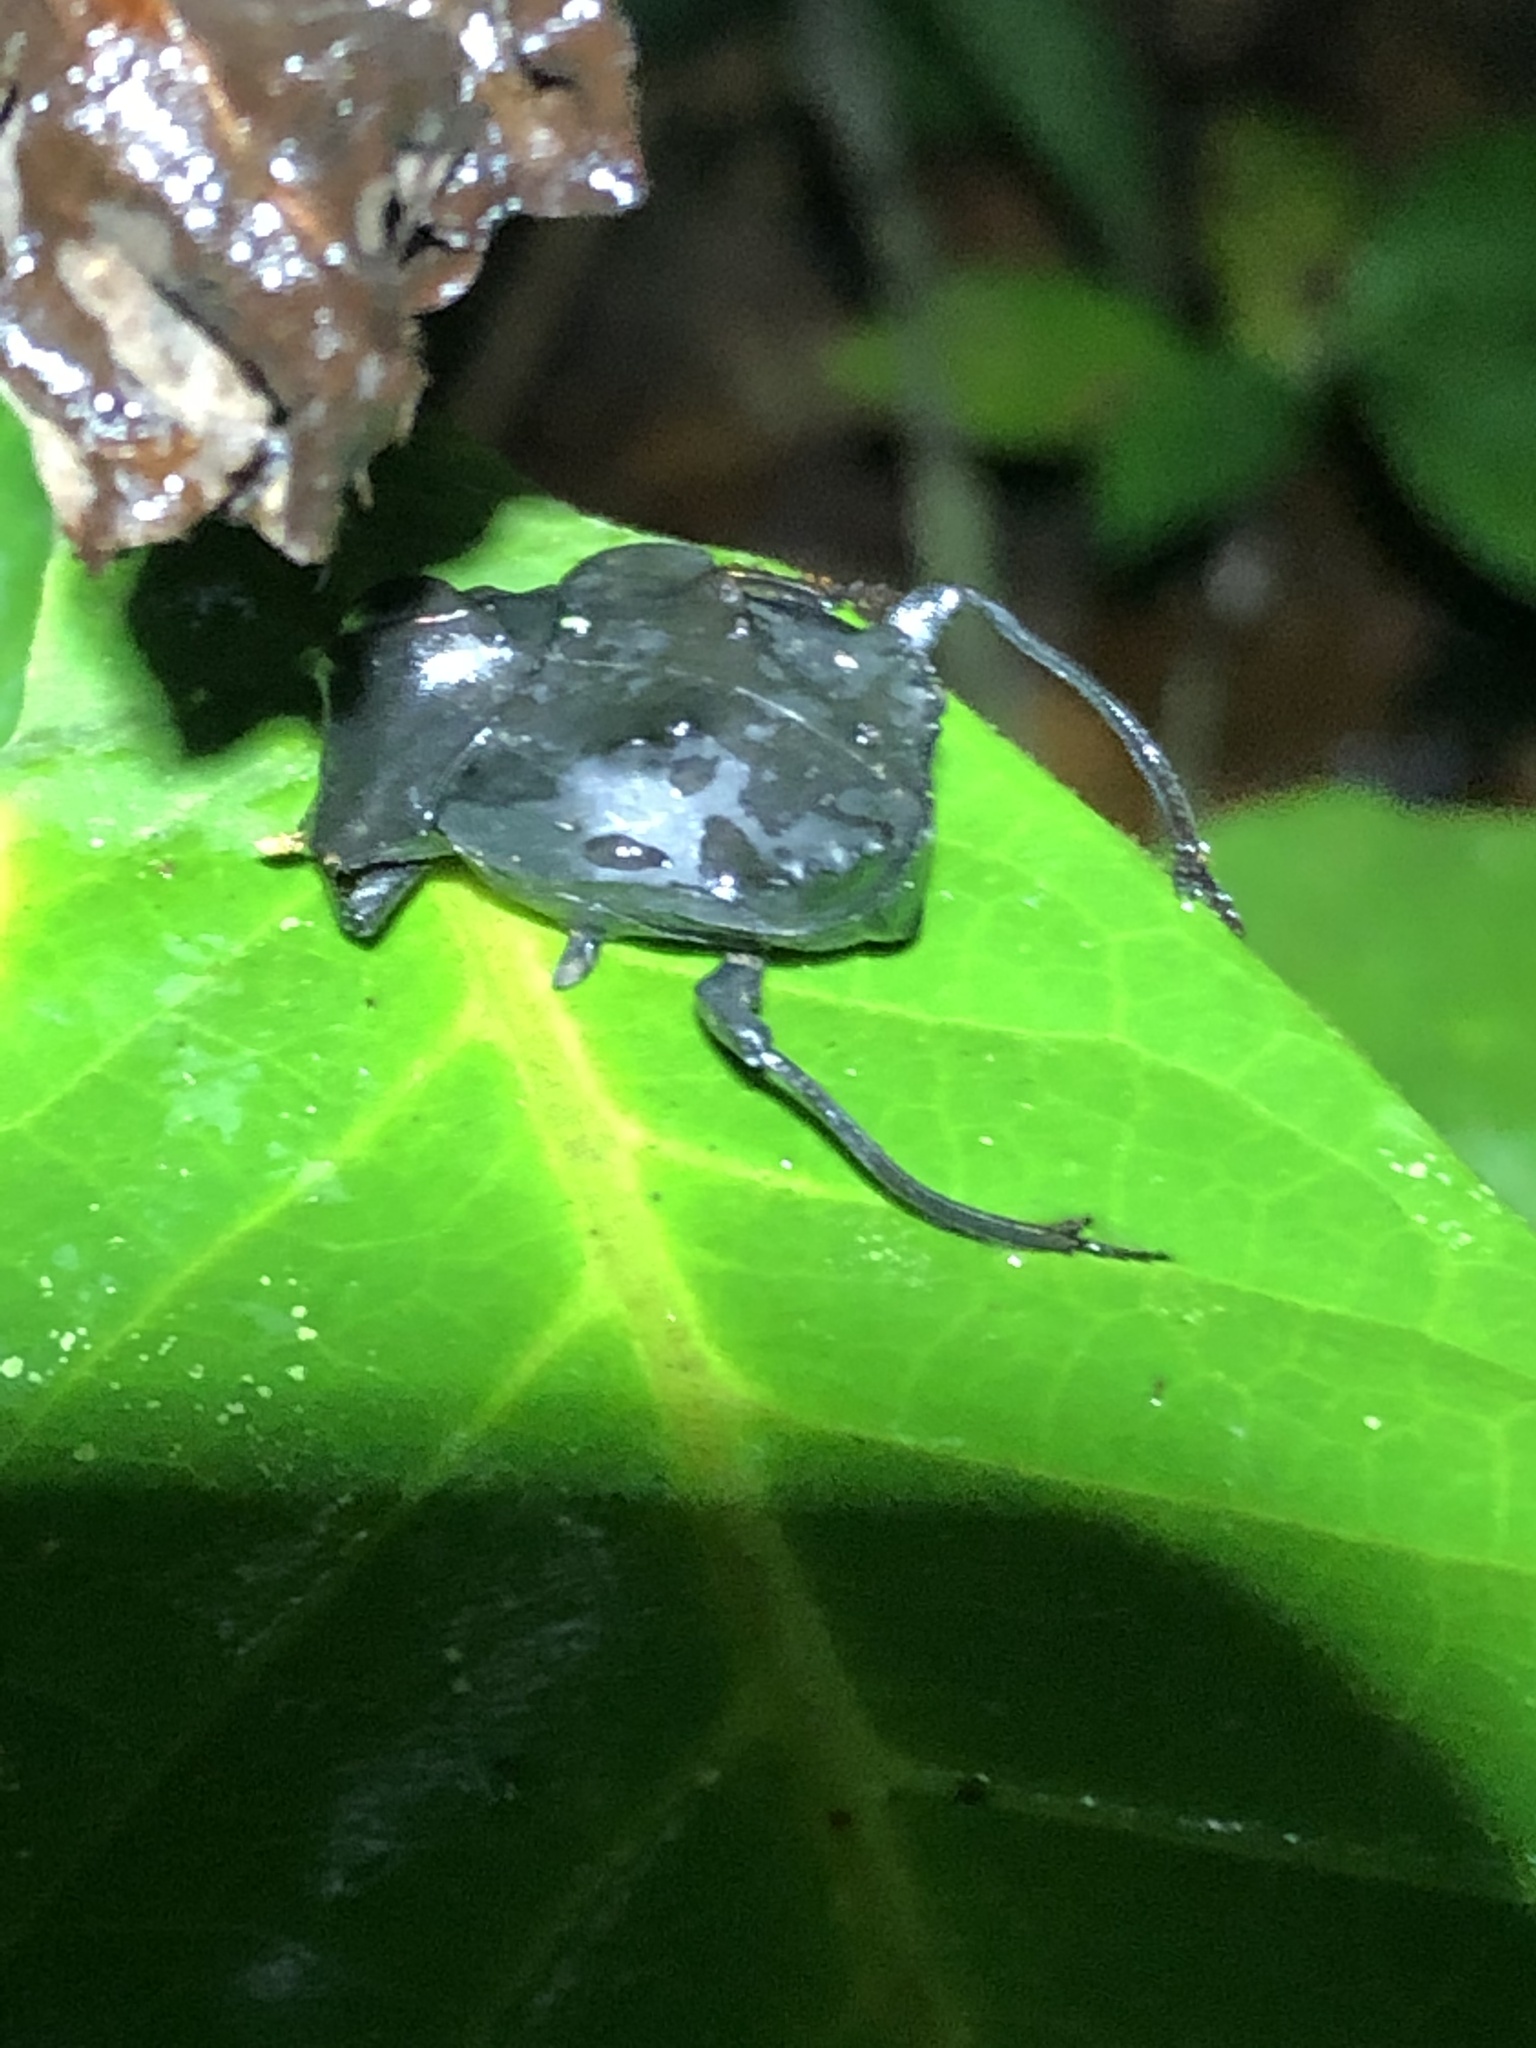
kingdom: Animalia
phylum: Arthropoda
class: Insecta
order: Coleoptera
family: Scarabaeidae
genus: Deltochilum
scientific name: Deltochilum carinatum
